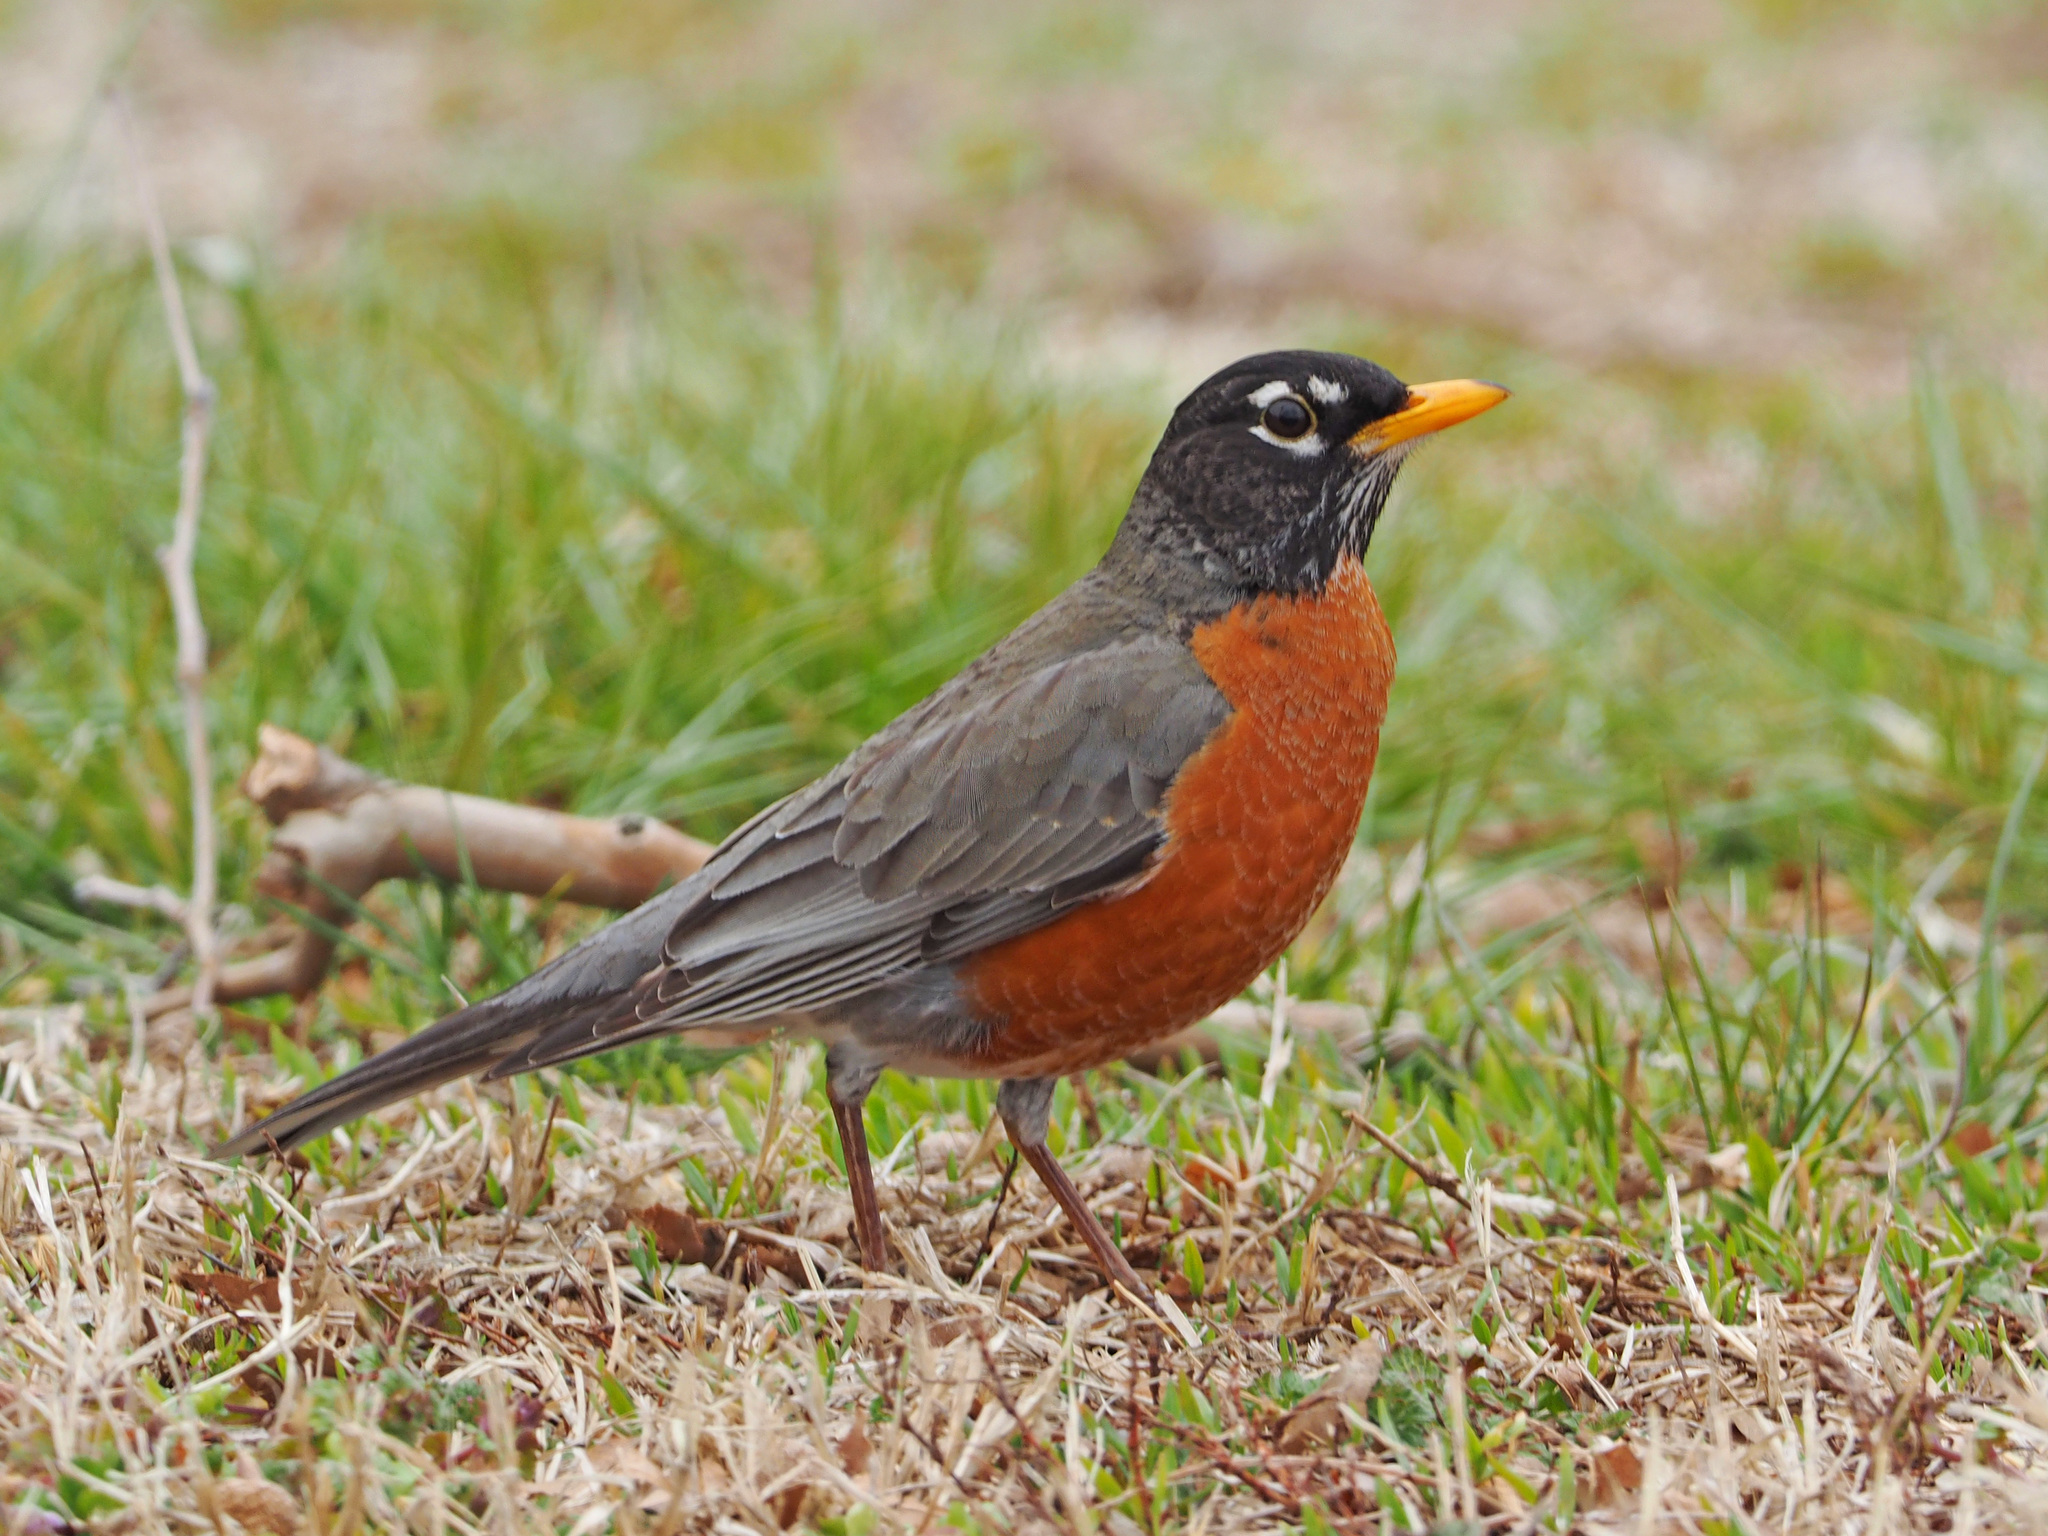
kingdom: Animalia
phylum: Chordata
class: Aves
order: Passeriformes
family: Turdidae
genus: Turdus
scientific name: Turdus migratorius
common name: American robin
